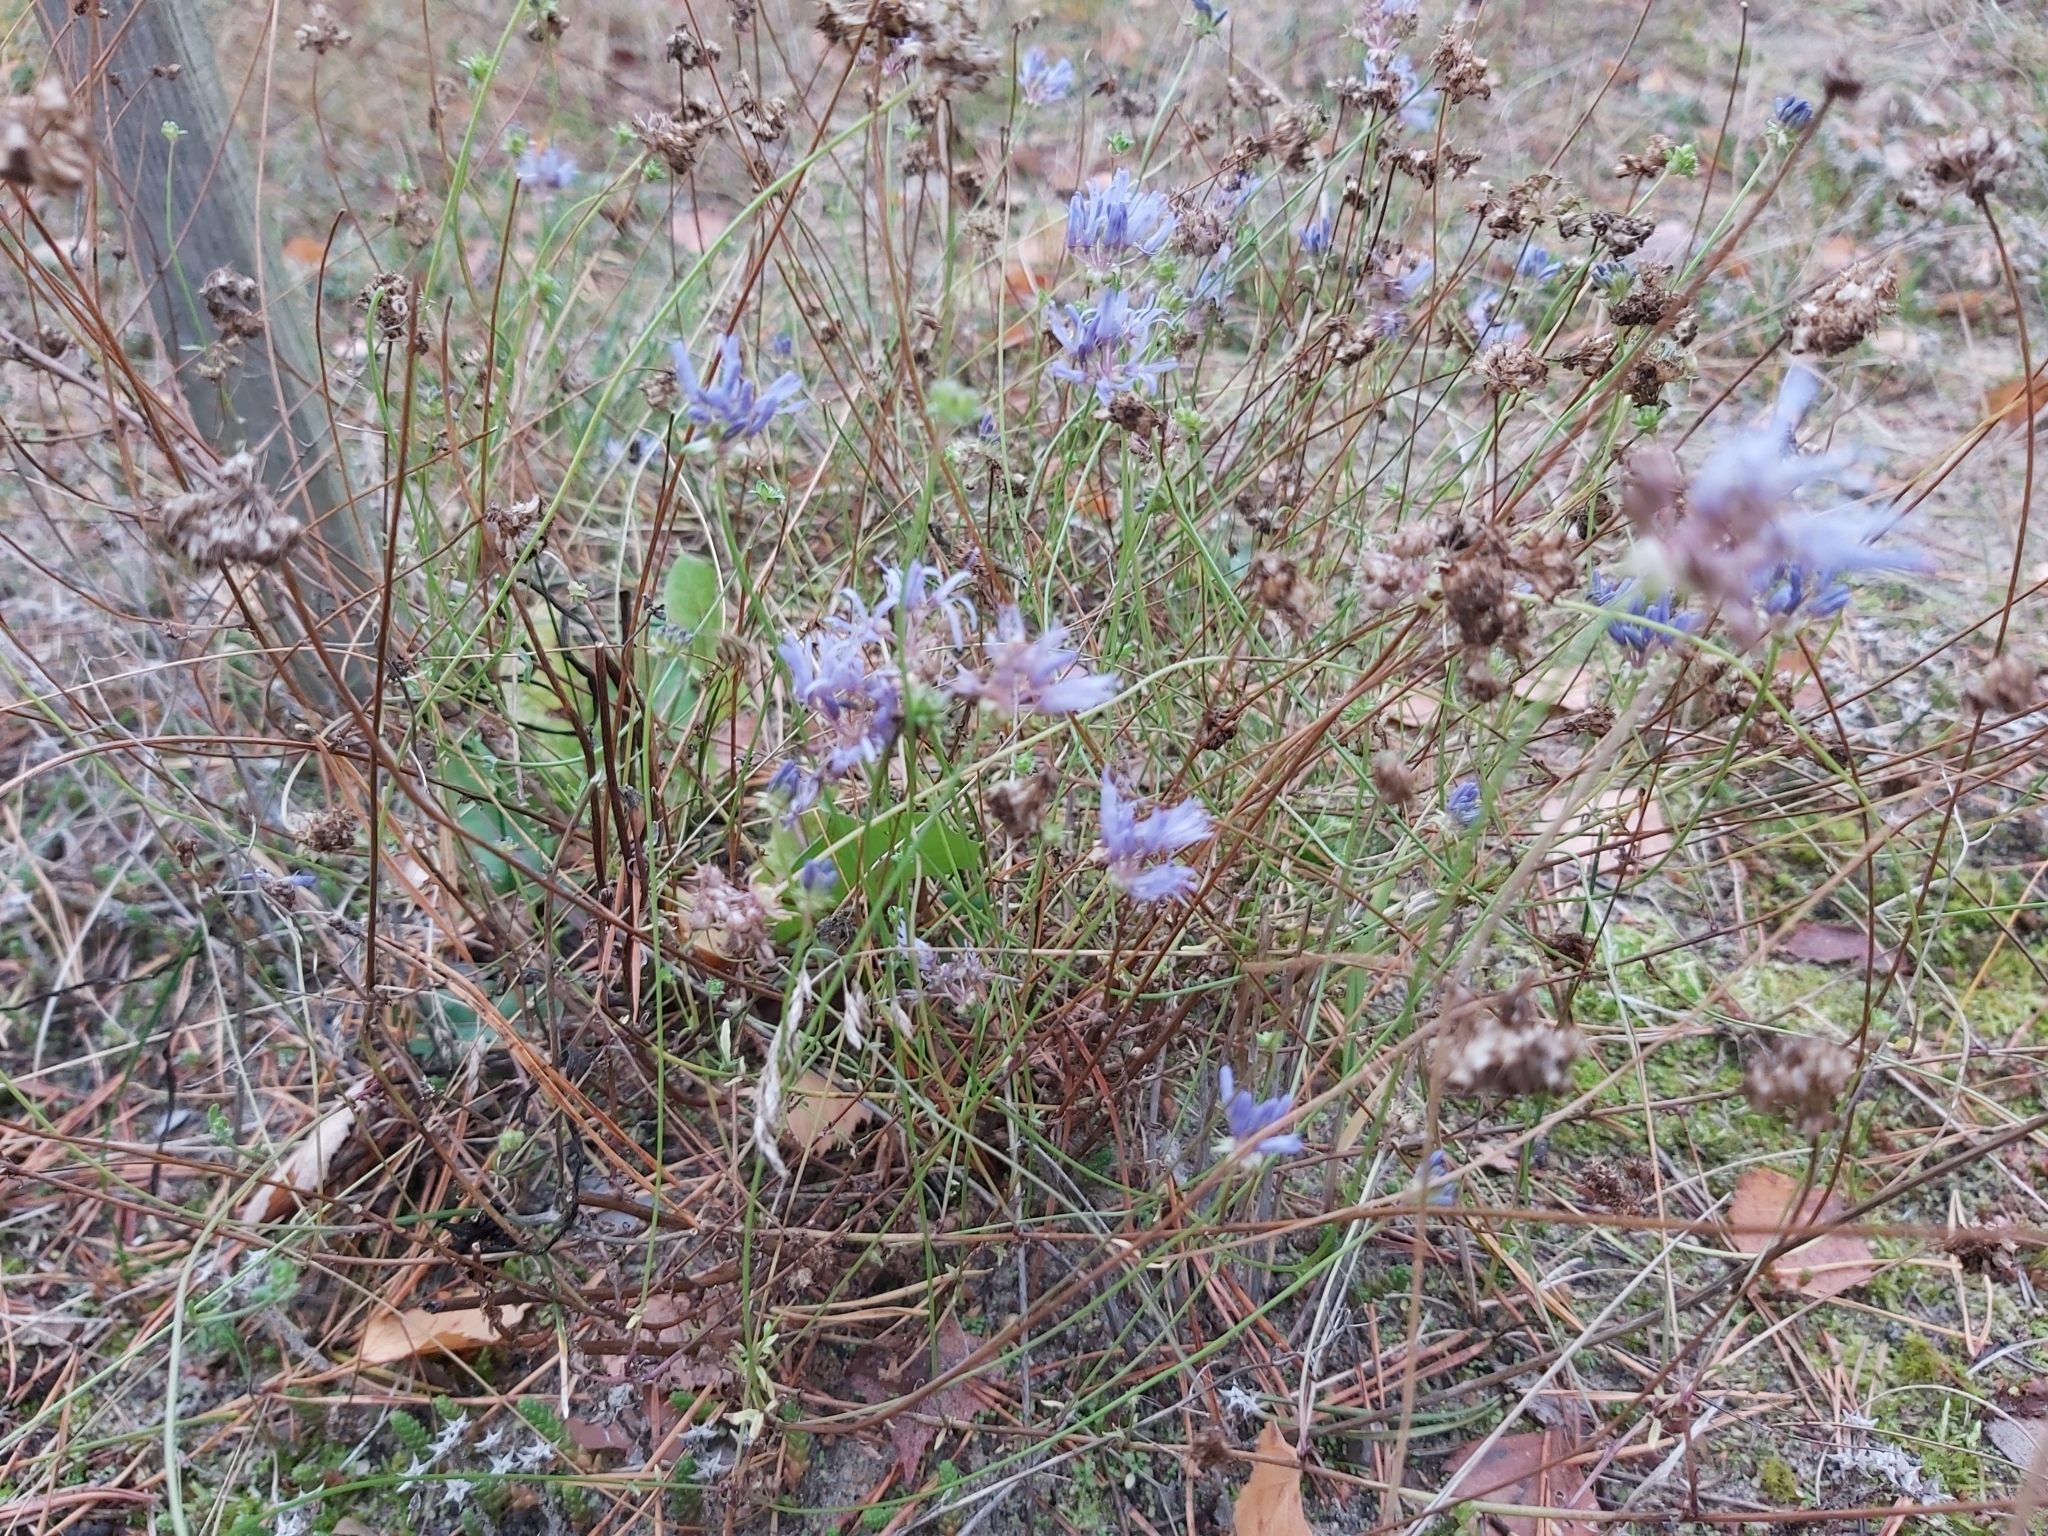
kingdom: Plantae
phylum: Tracheophyta
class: Magnoliopsida
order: Asterales
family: Campanulaceae
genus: Jasione
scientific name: Jasione montana
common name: Sheep's-bit
